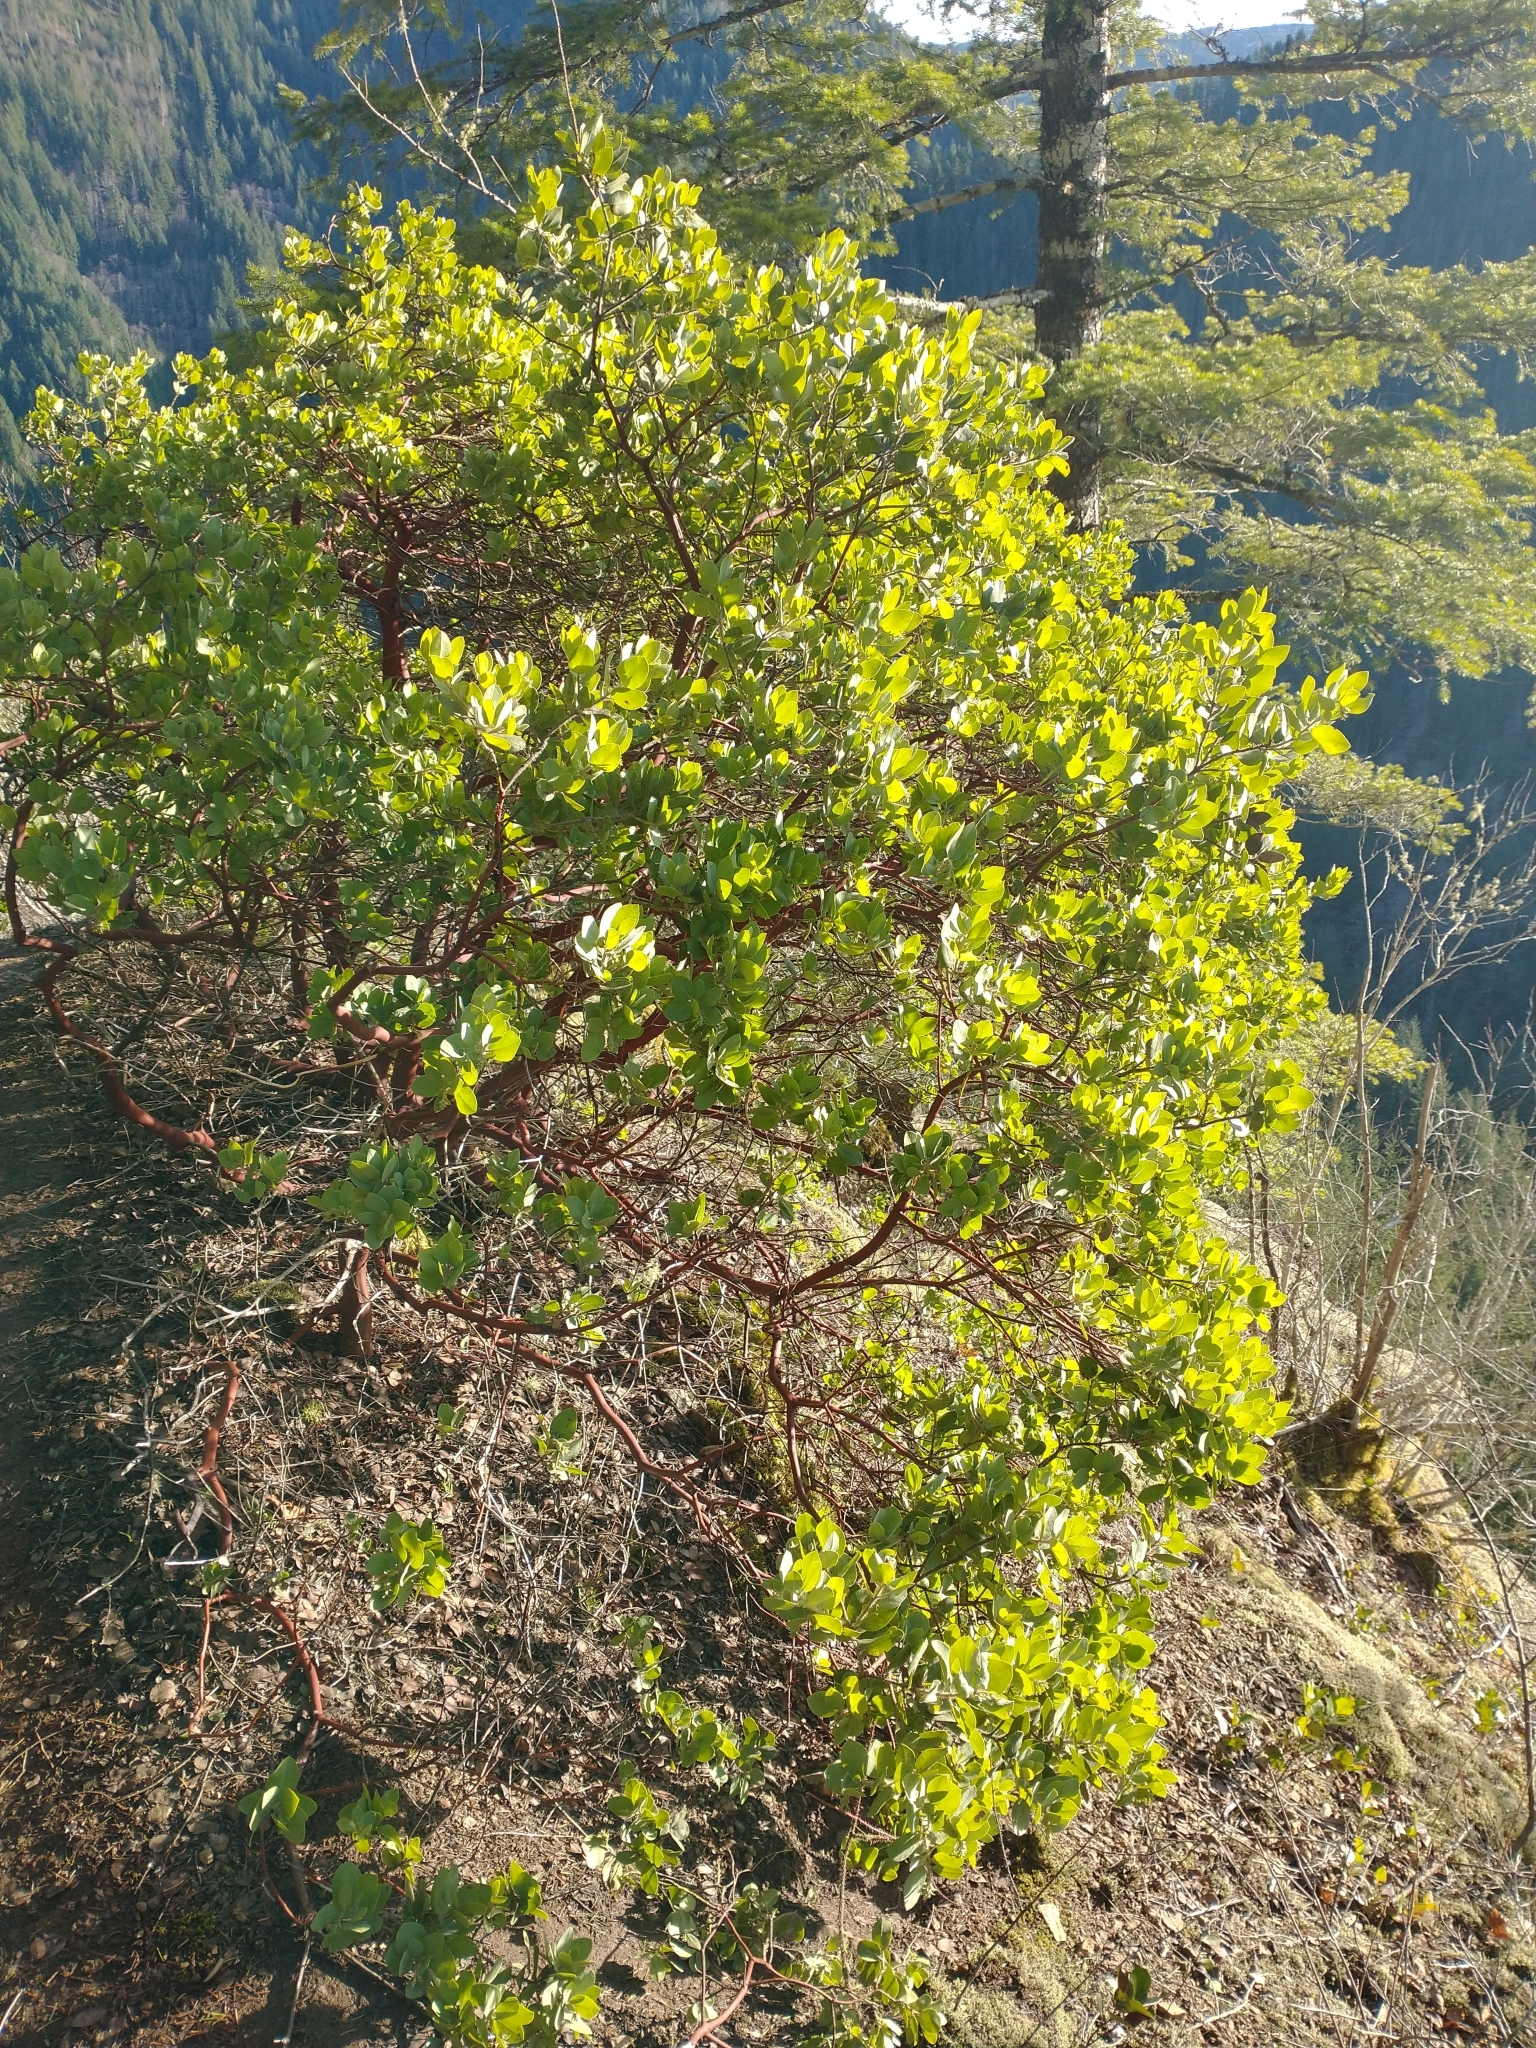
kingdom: Plantae
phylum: Tracheophyta
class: Magnoliopsida
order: Ericales
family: Ericaceae
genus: Arctostaphylos
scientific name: Arctostaphylos columbiana
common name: Bristly bearberry
